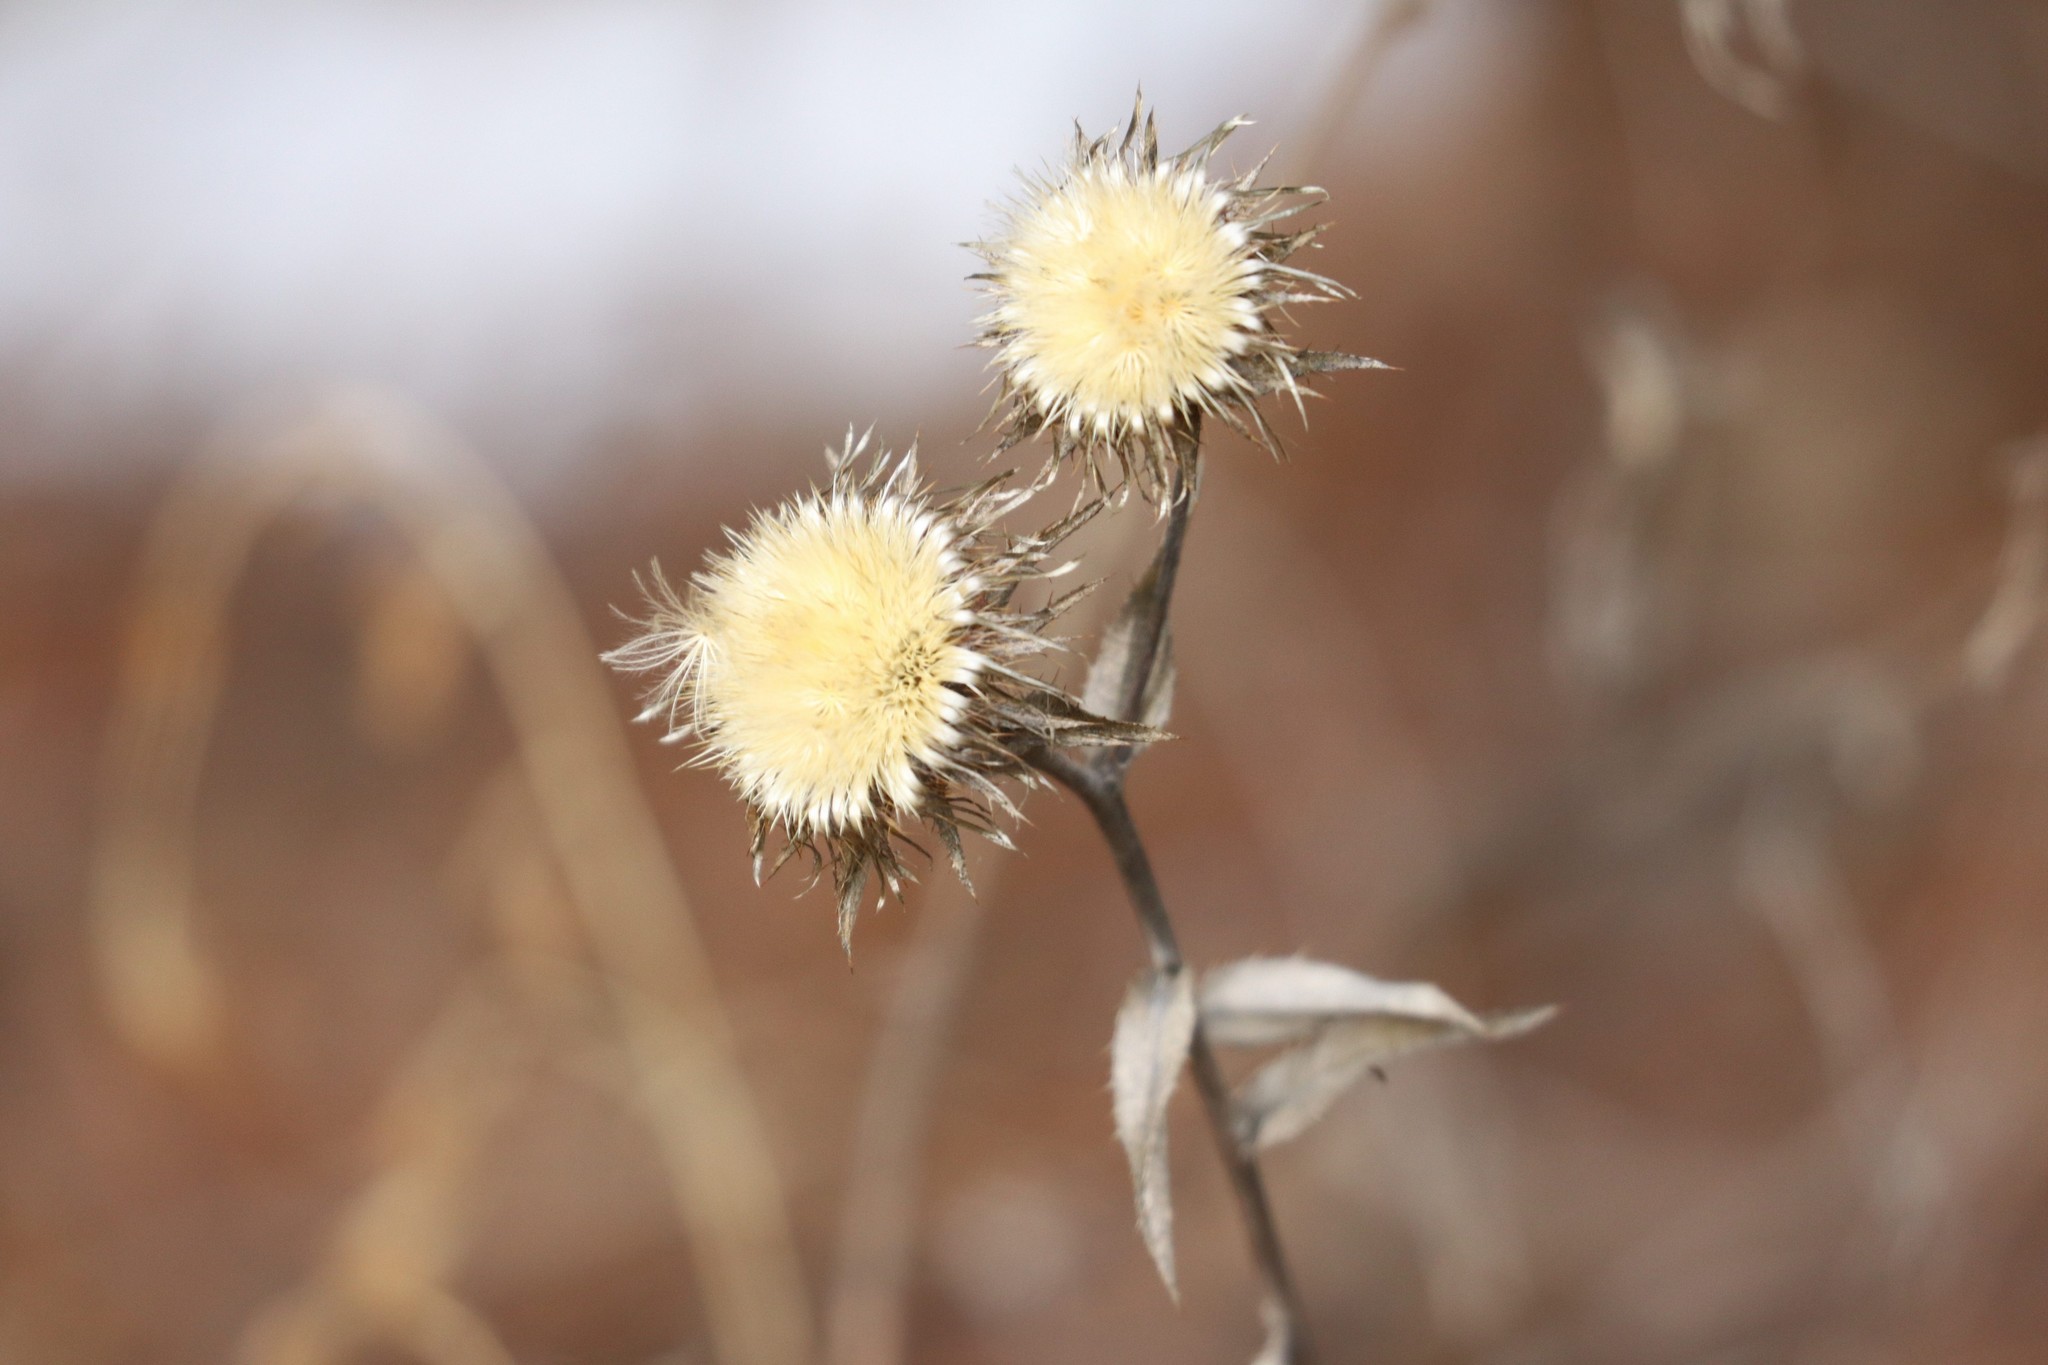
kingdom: Plantae
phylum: Tracheophyta
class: Magnoliopsida
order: Asterales
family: Asteraceae
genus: Carlina
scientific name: Carlina biebersteinii
